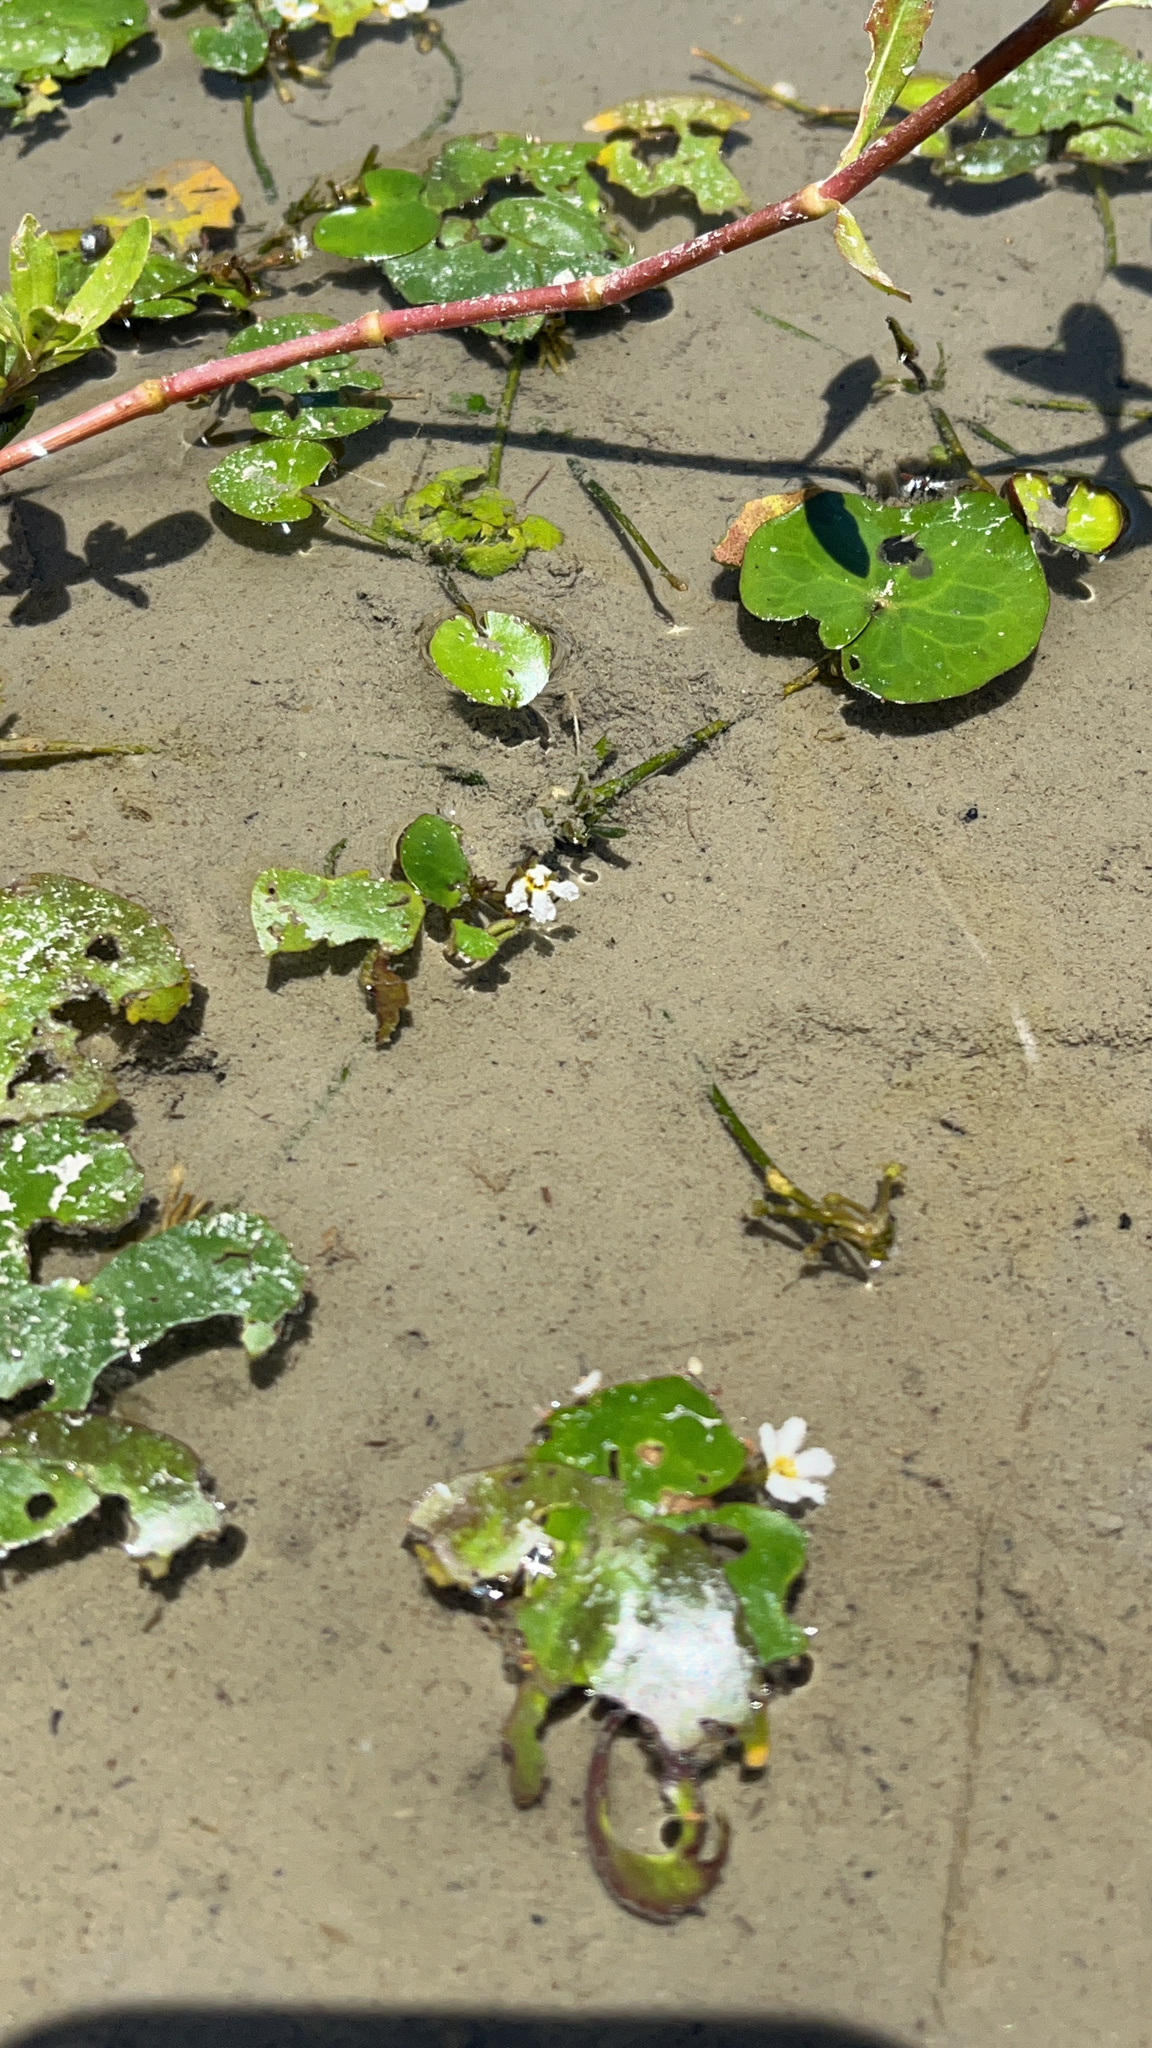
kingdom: Plantae
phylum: Tracheophyta
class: Magnoliopsida
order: Asterales
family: Menyanthaceae
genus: Nymphoides
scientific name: Nymphoides coreana
